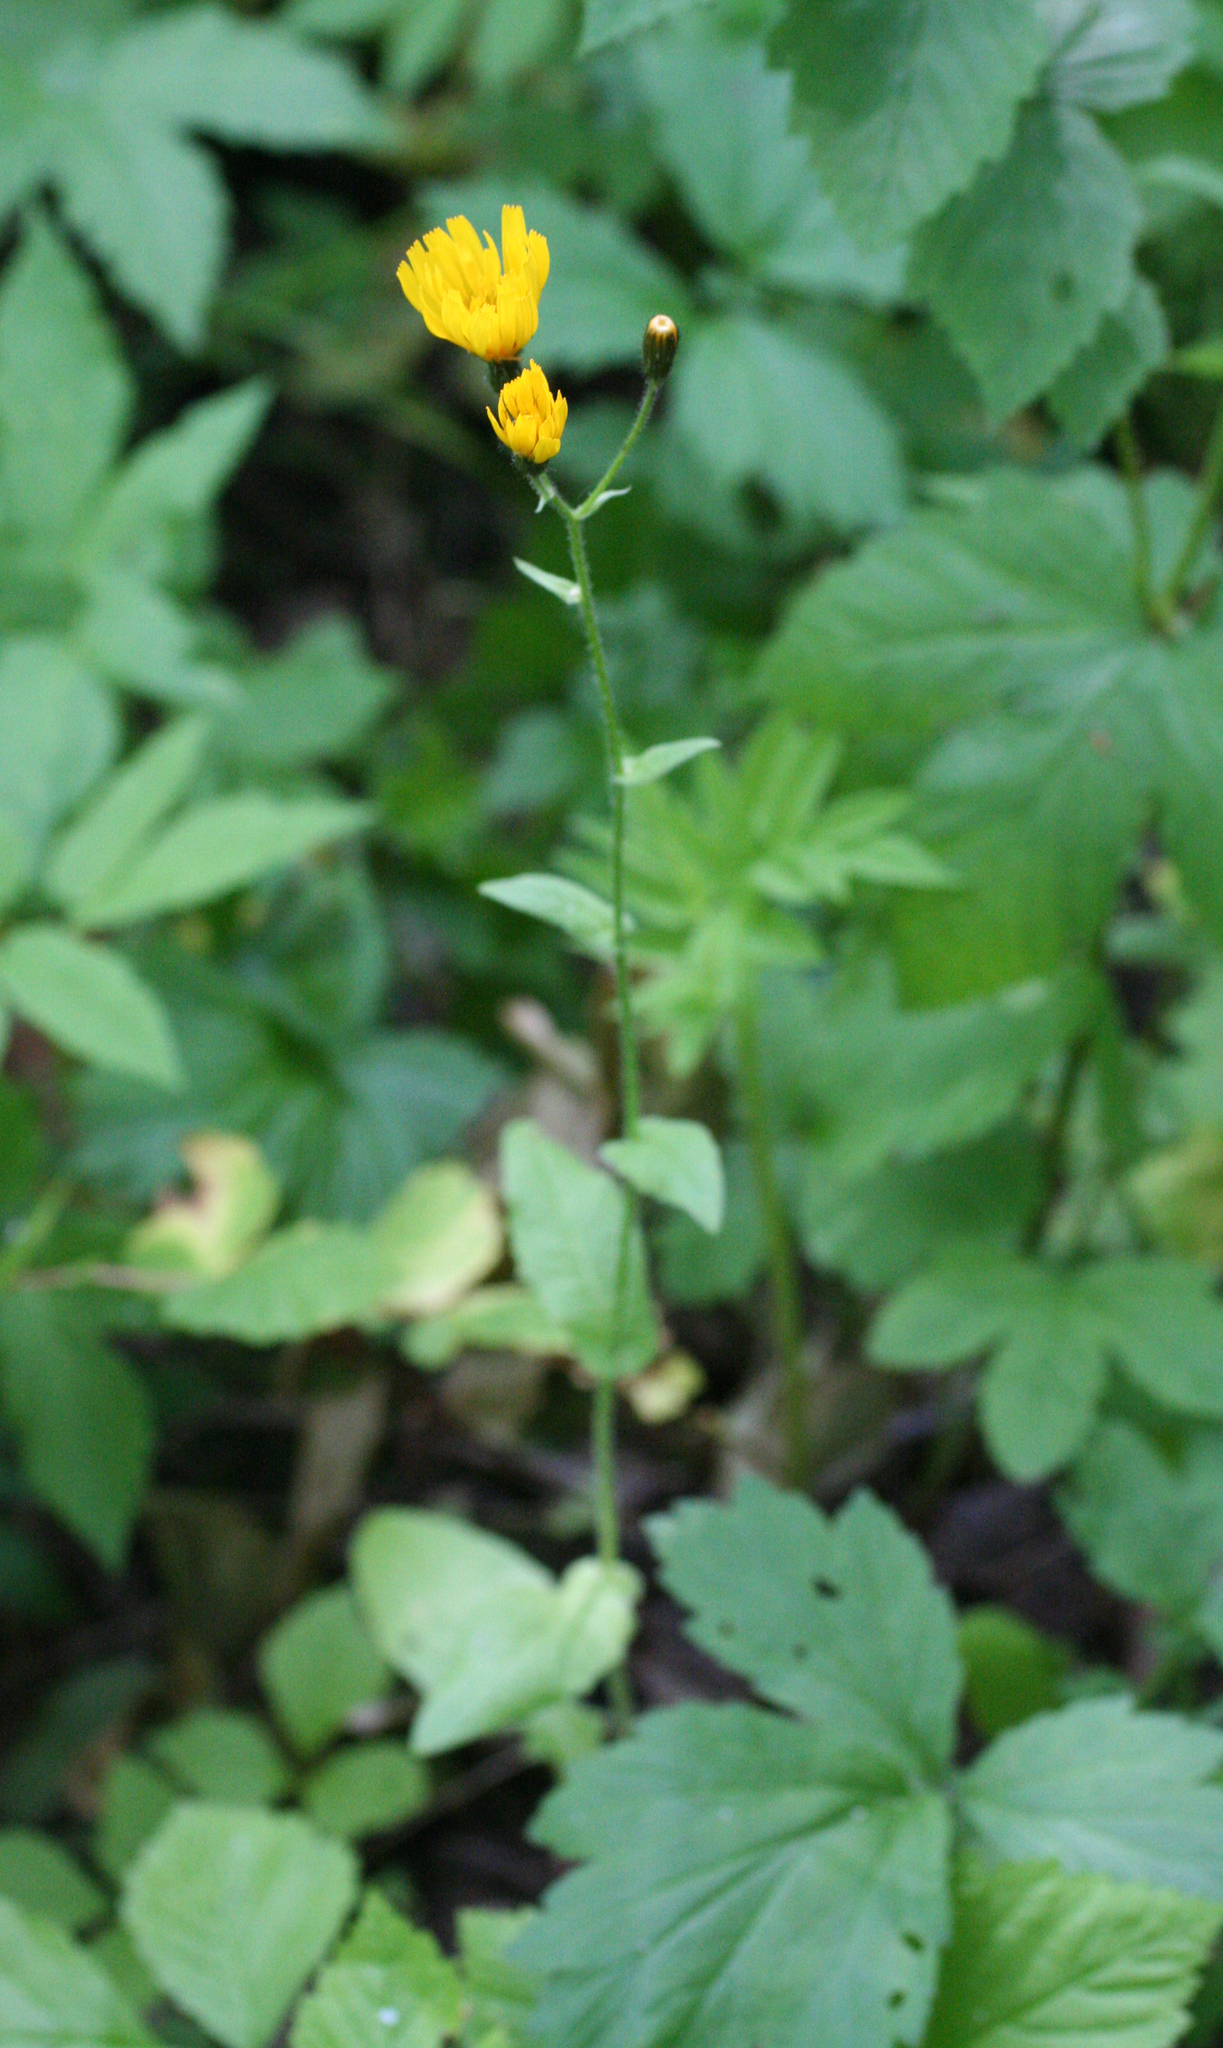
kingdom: Plantae
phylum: Tracheophyta
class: Magnoliopsida
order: Asterales
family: Asteraceae
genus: Crepis
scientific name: Crepis lyrata
